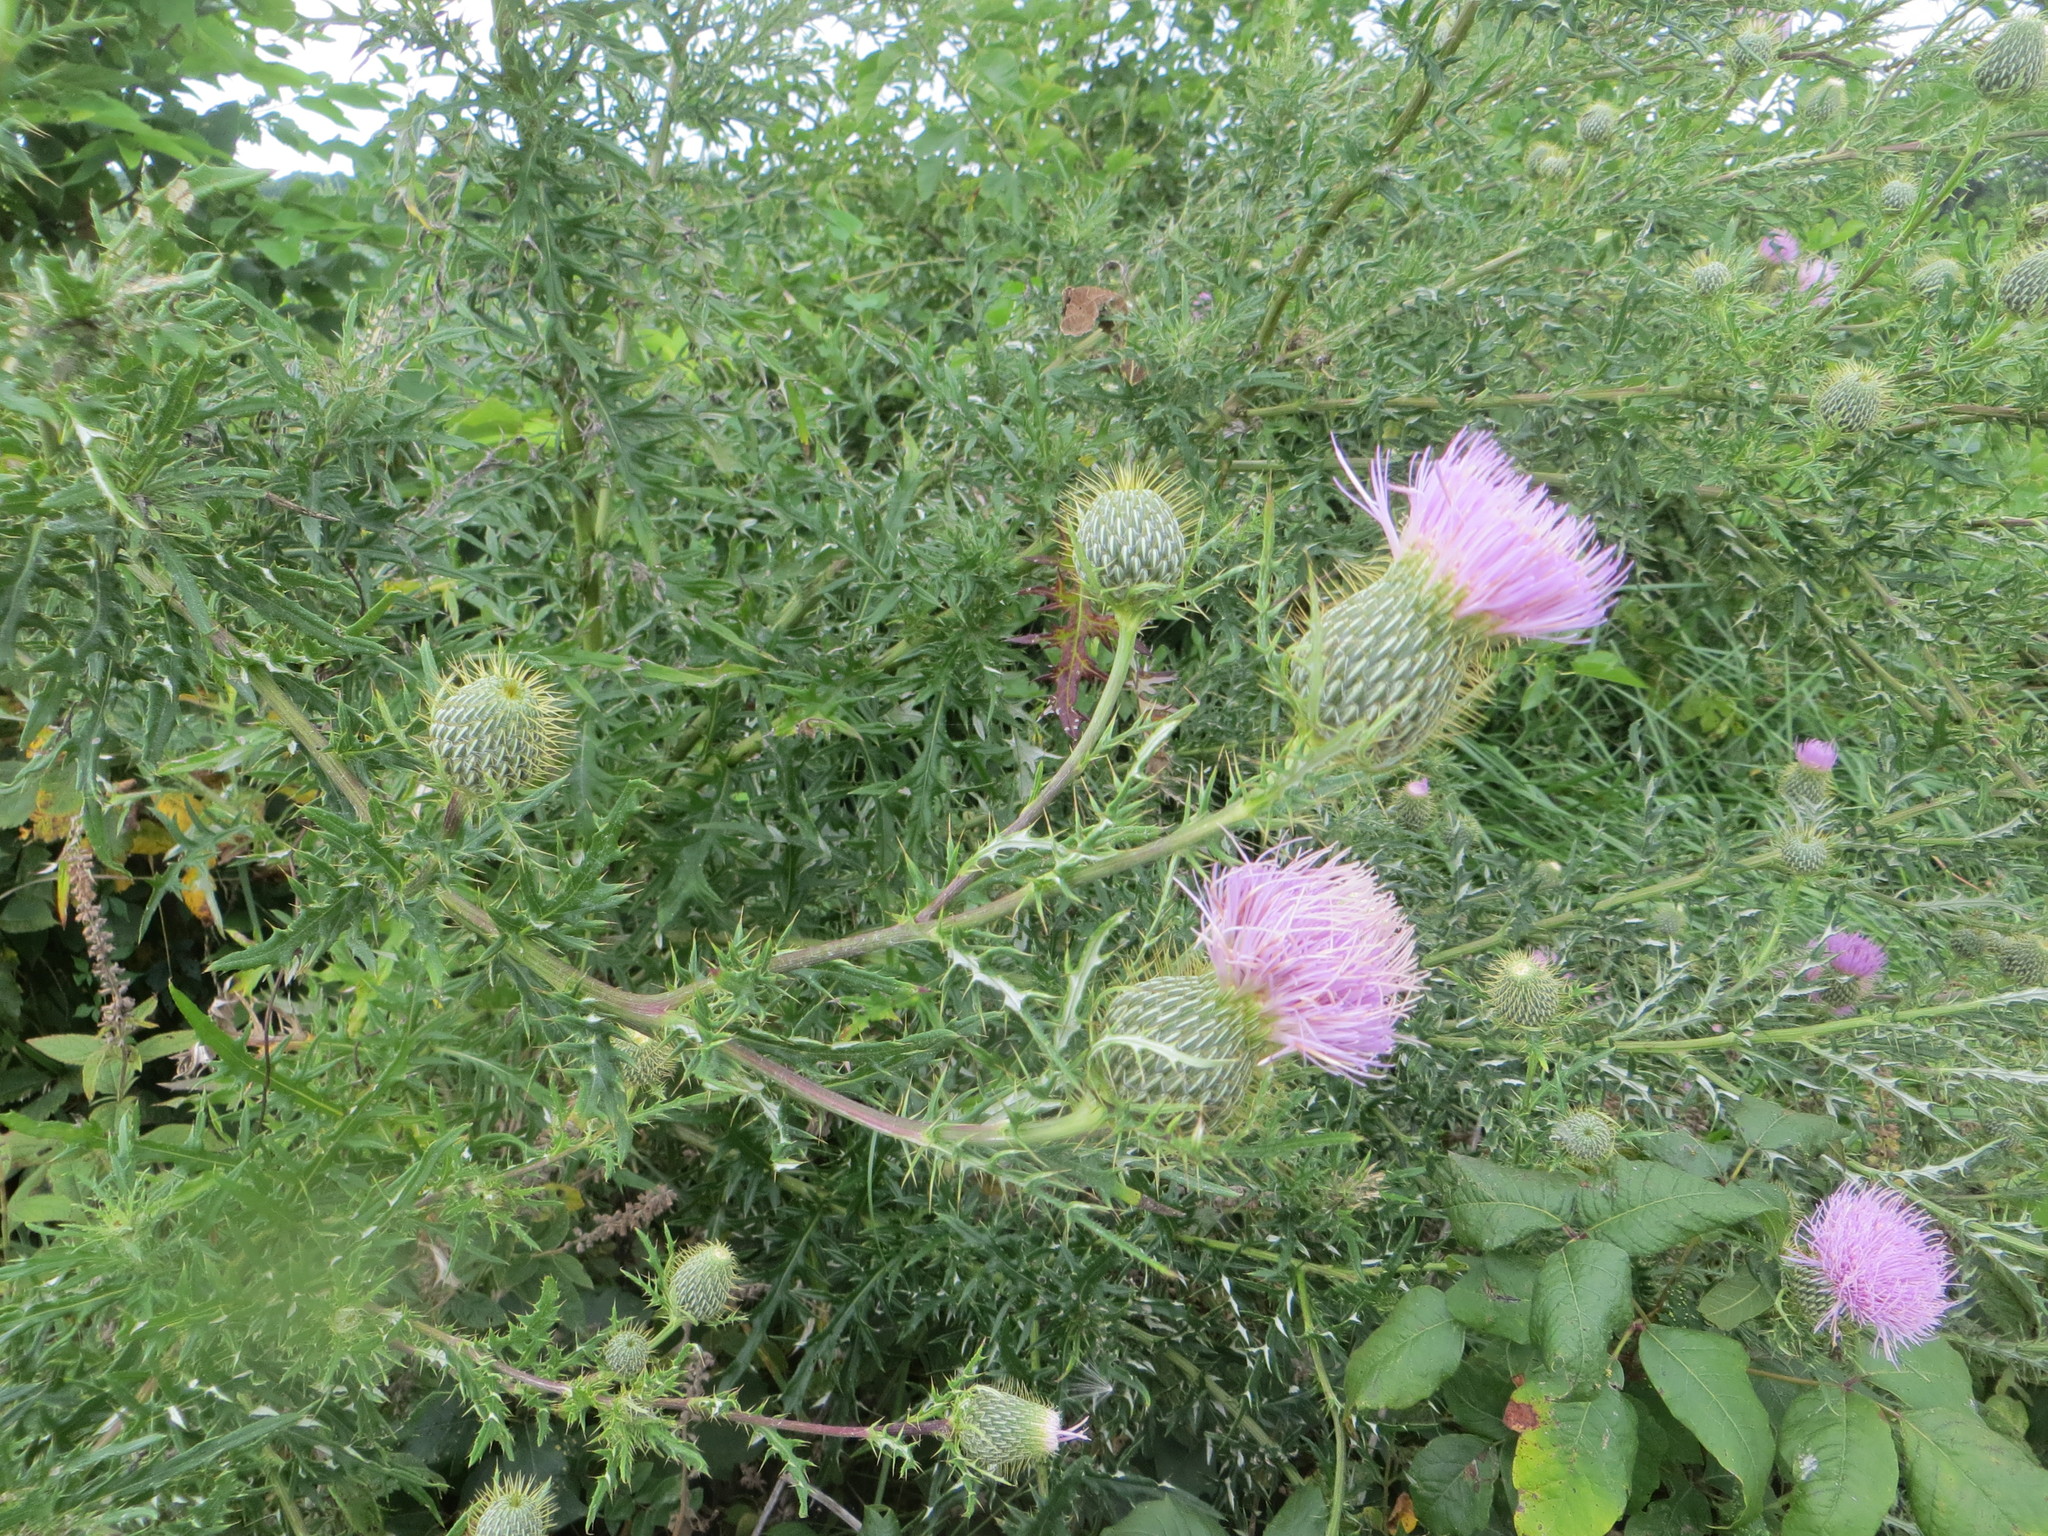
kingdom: Plantae
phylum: Tracheophyta
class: Magnoliopsida
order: Asterales
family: Asteraceae
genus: Cirsium
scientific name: Cirsium discolor
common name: Field thistle
